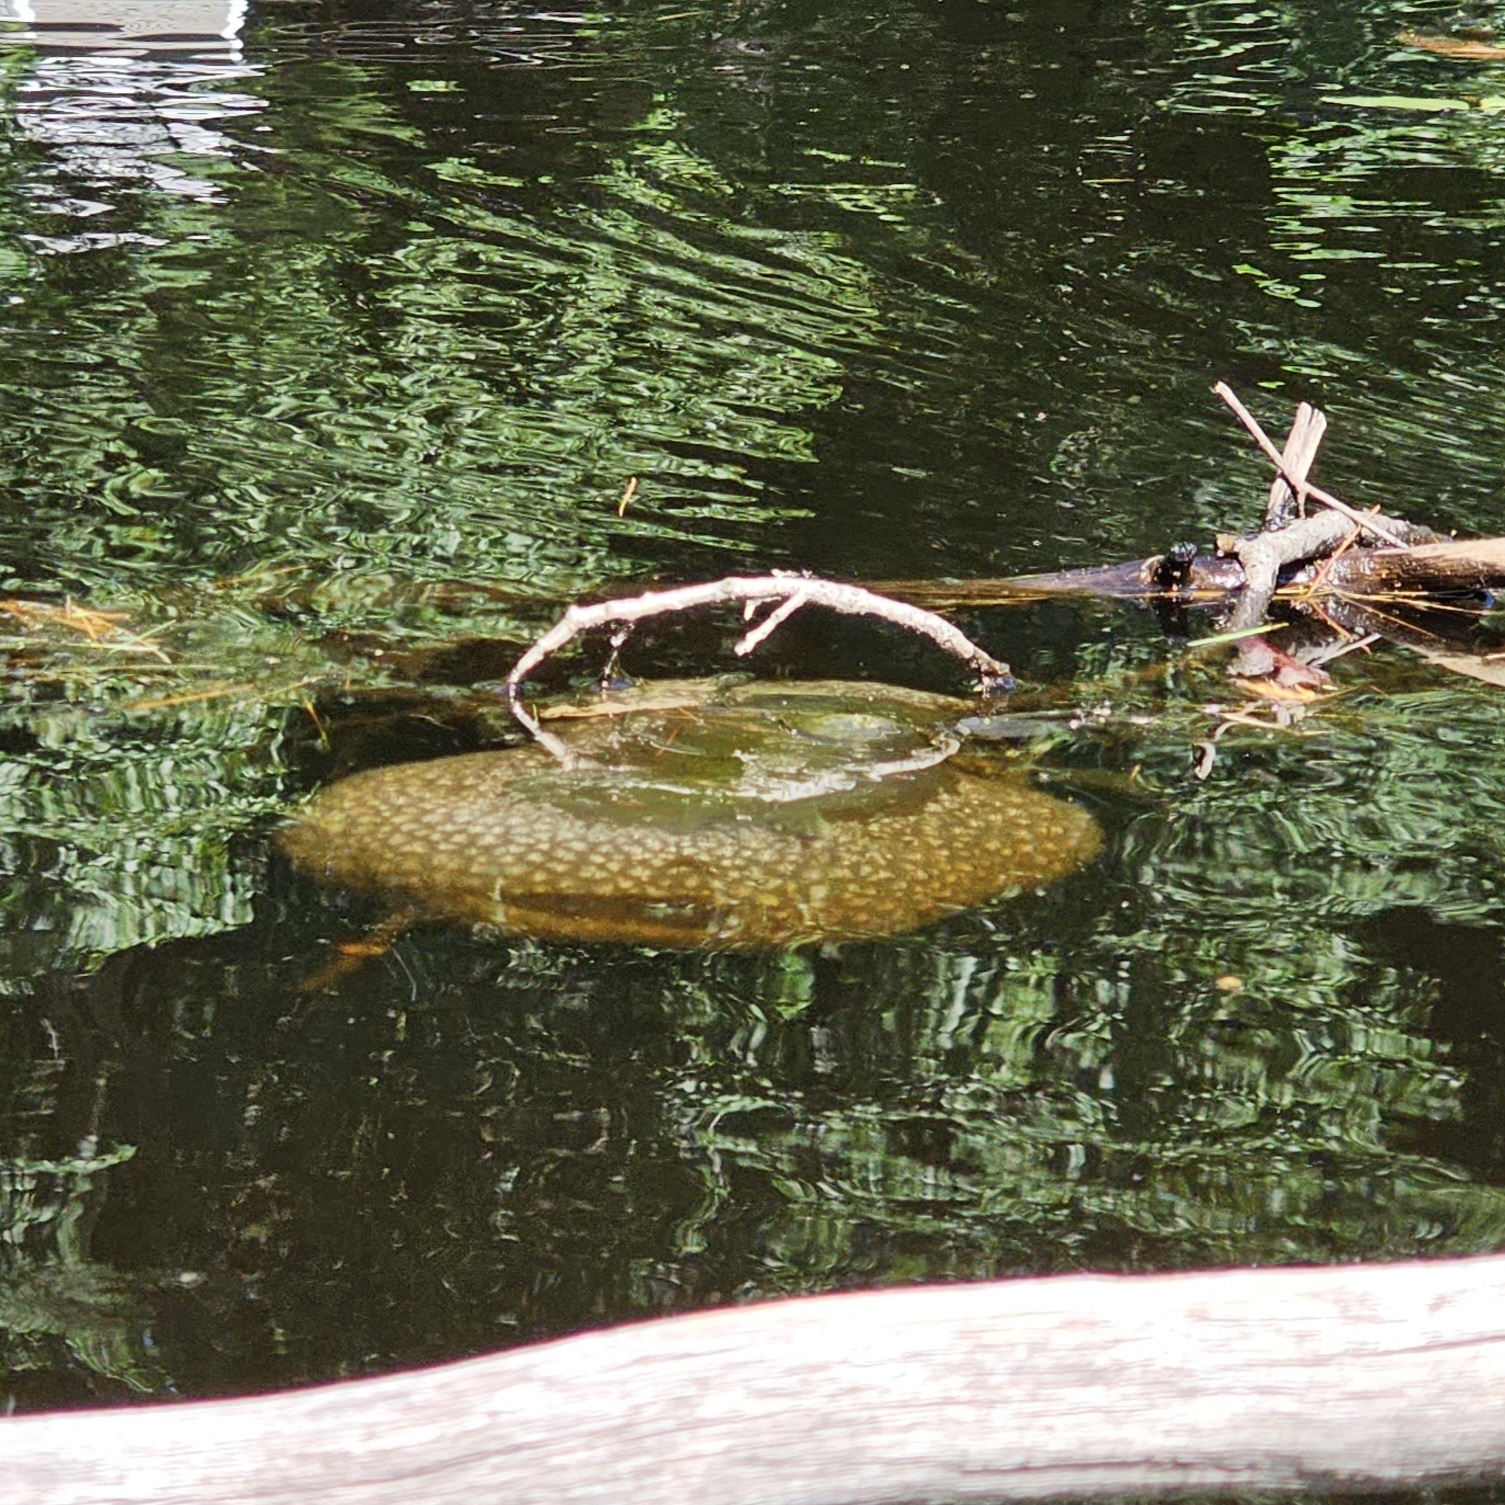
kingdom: Animalia
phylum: Bryozoa
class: Phylactolaemata
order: Plumatellida
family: Pectinatellidae
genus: Pectinatella
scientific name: Pectinatella magnifica
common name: Magnificent bryozoan
